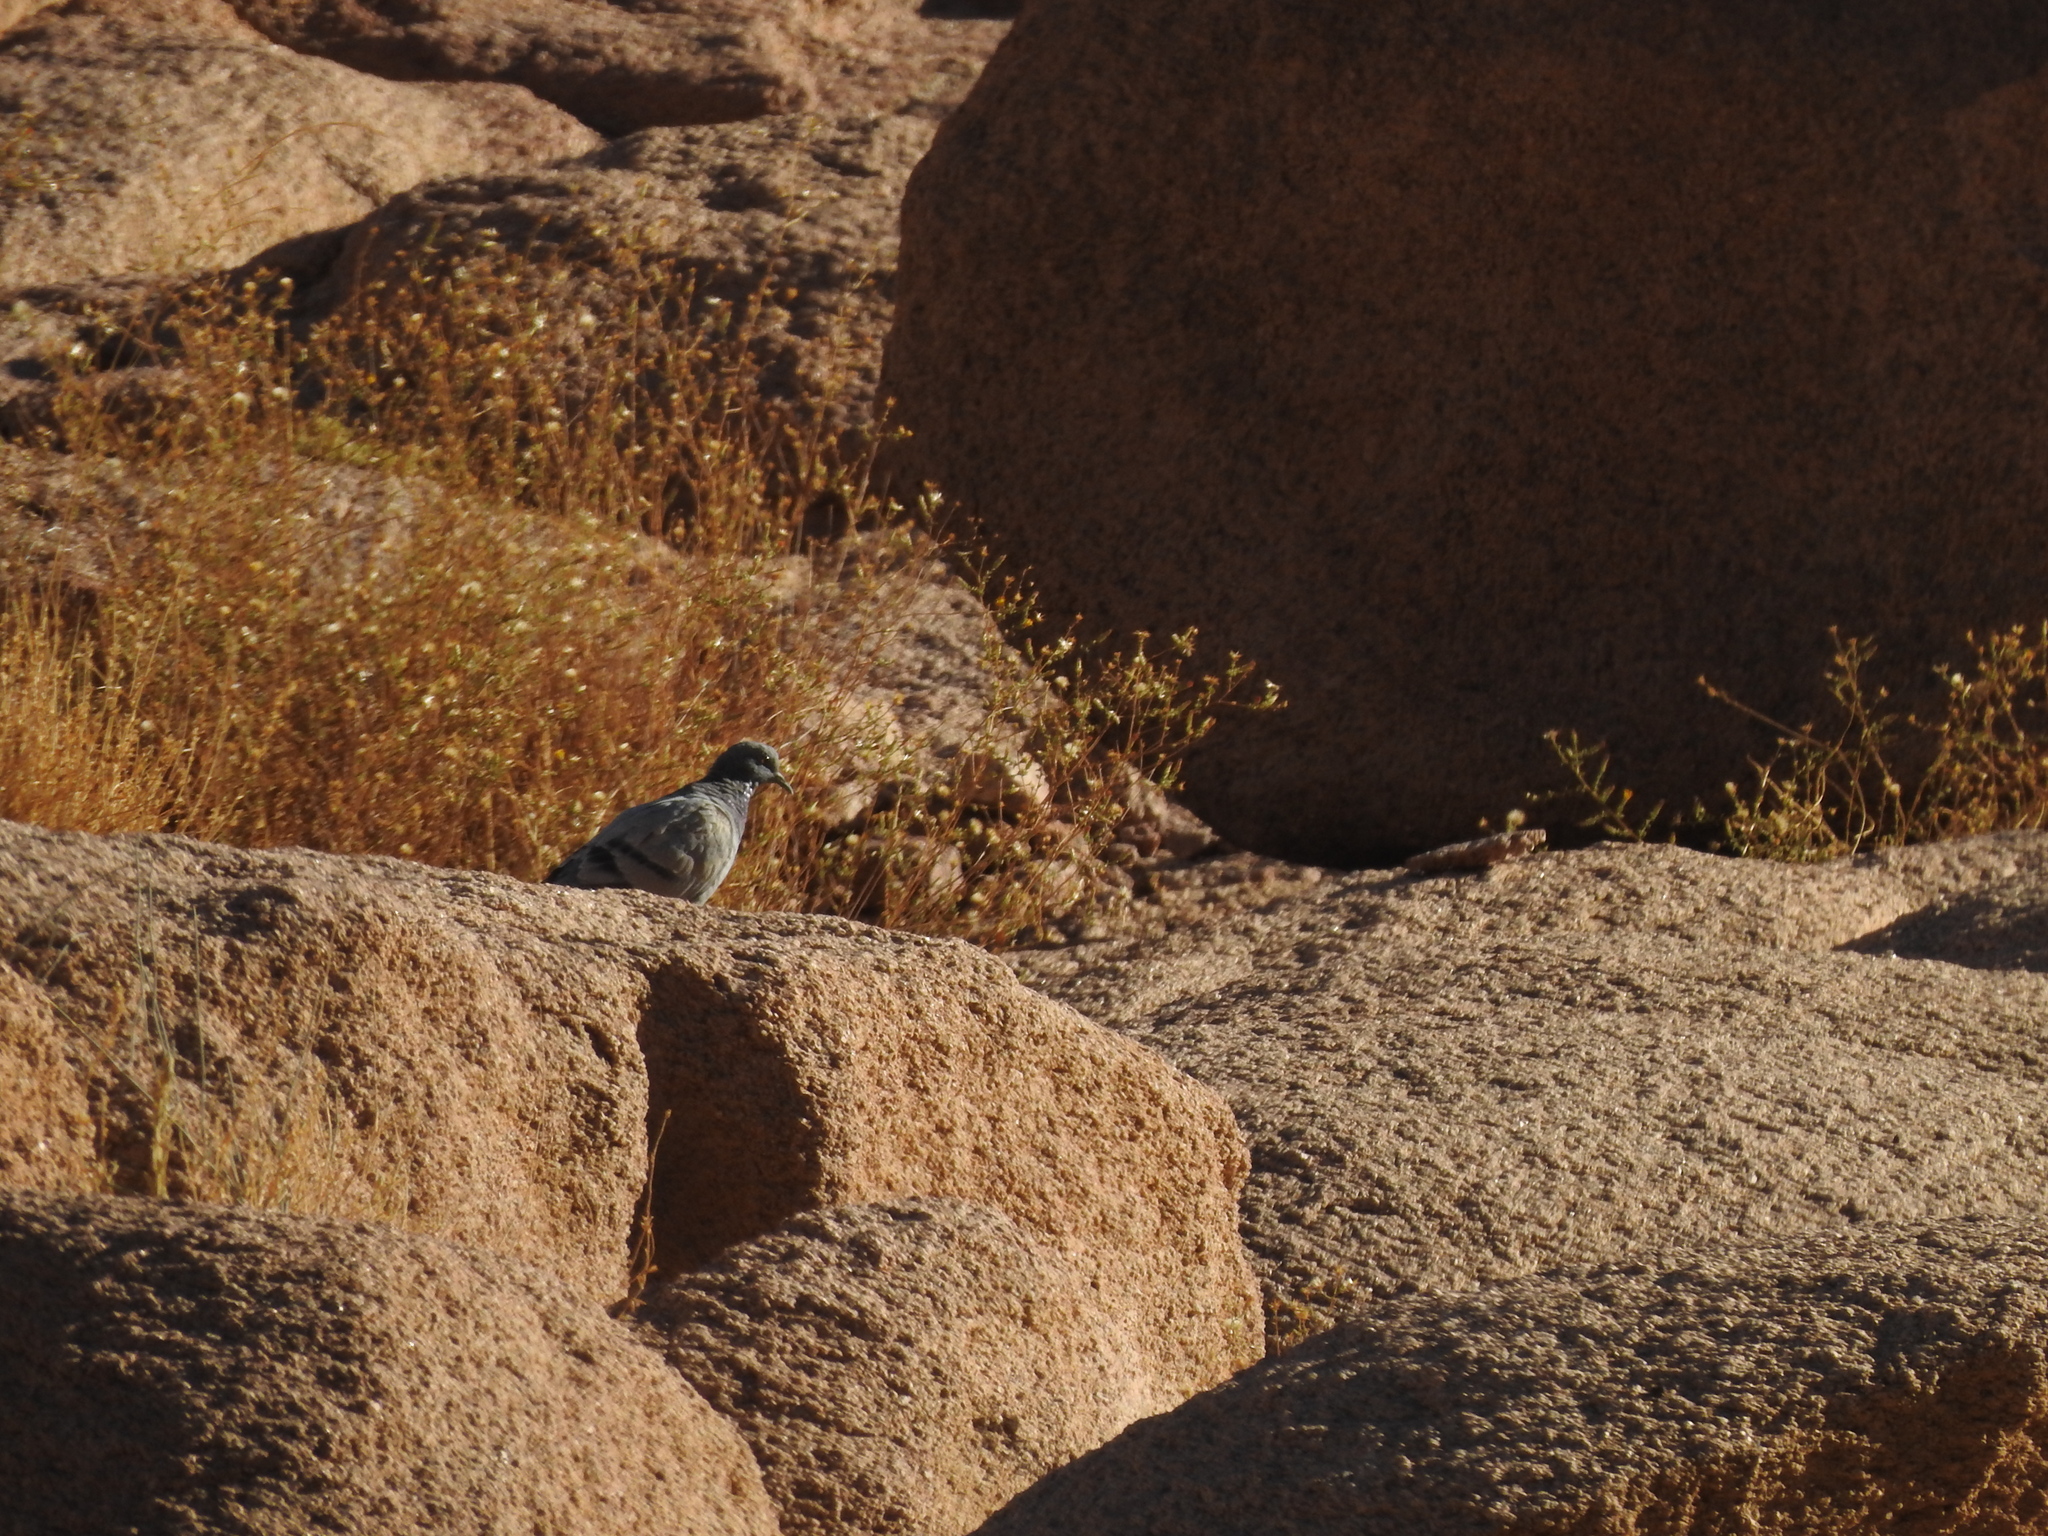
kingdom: Animalia
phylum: Chordata
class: Aves
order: Columbiformes
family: Columbidae
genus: Columba
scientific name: Columba livia
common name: Rock pigeon
